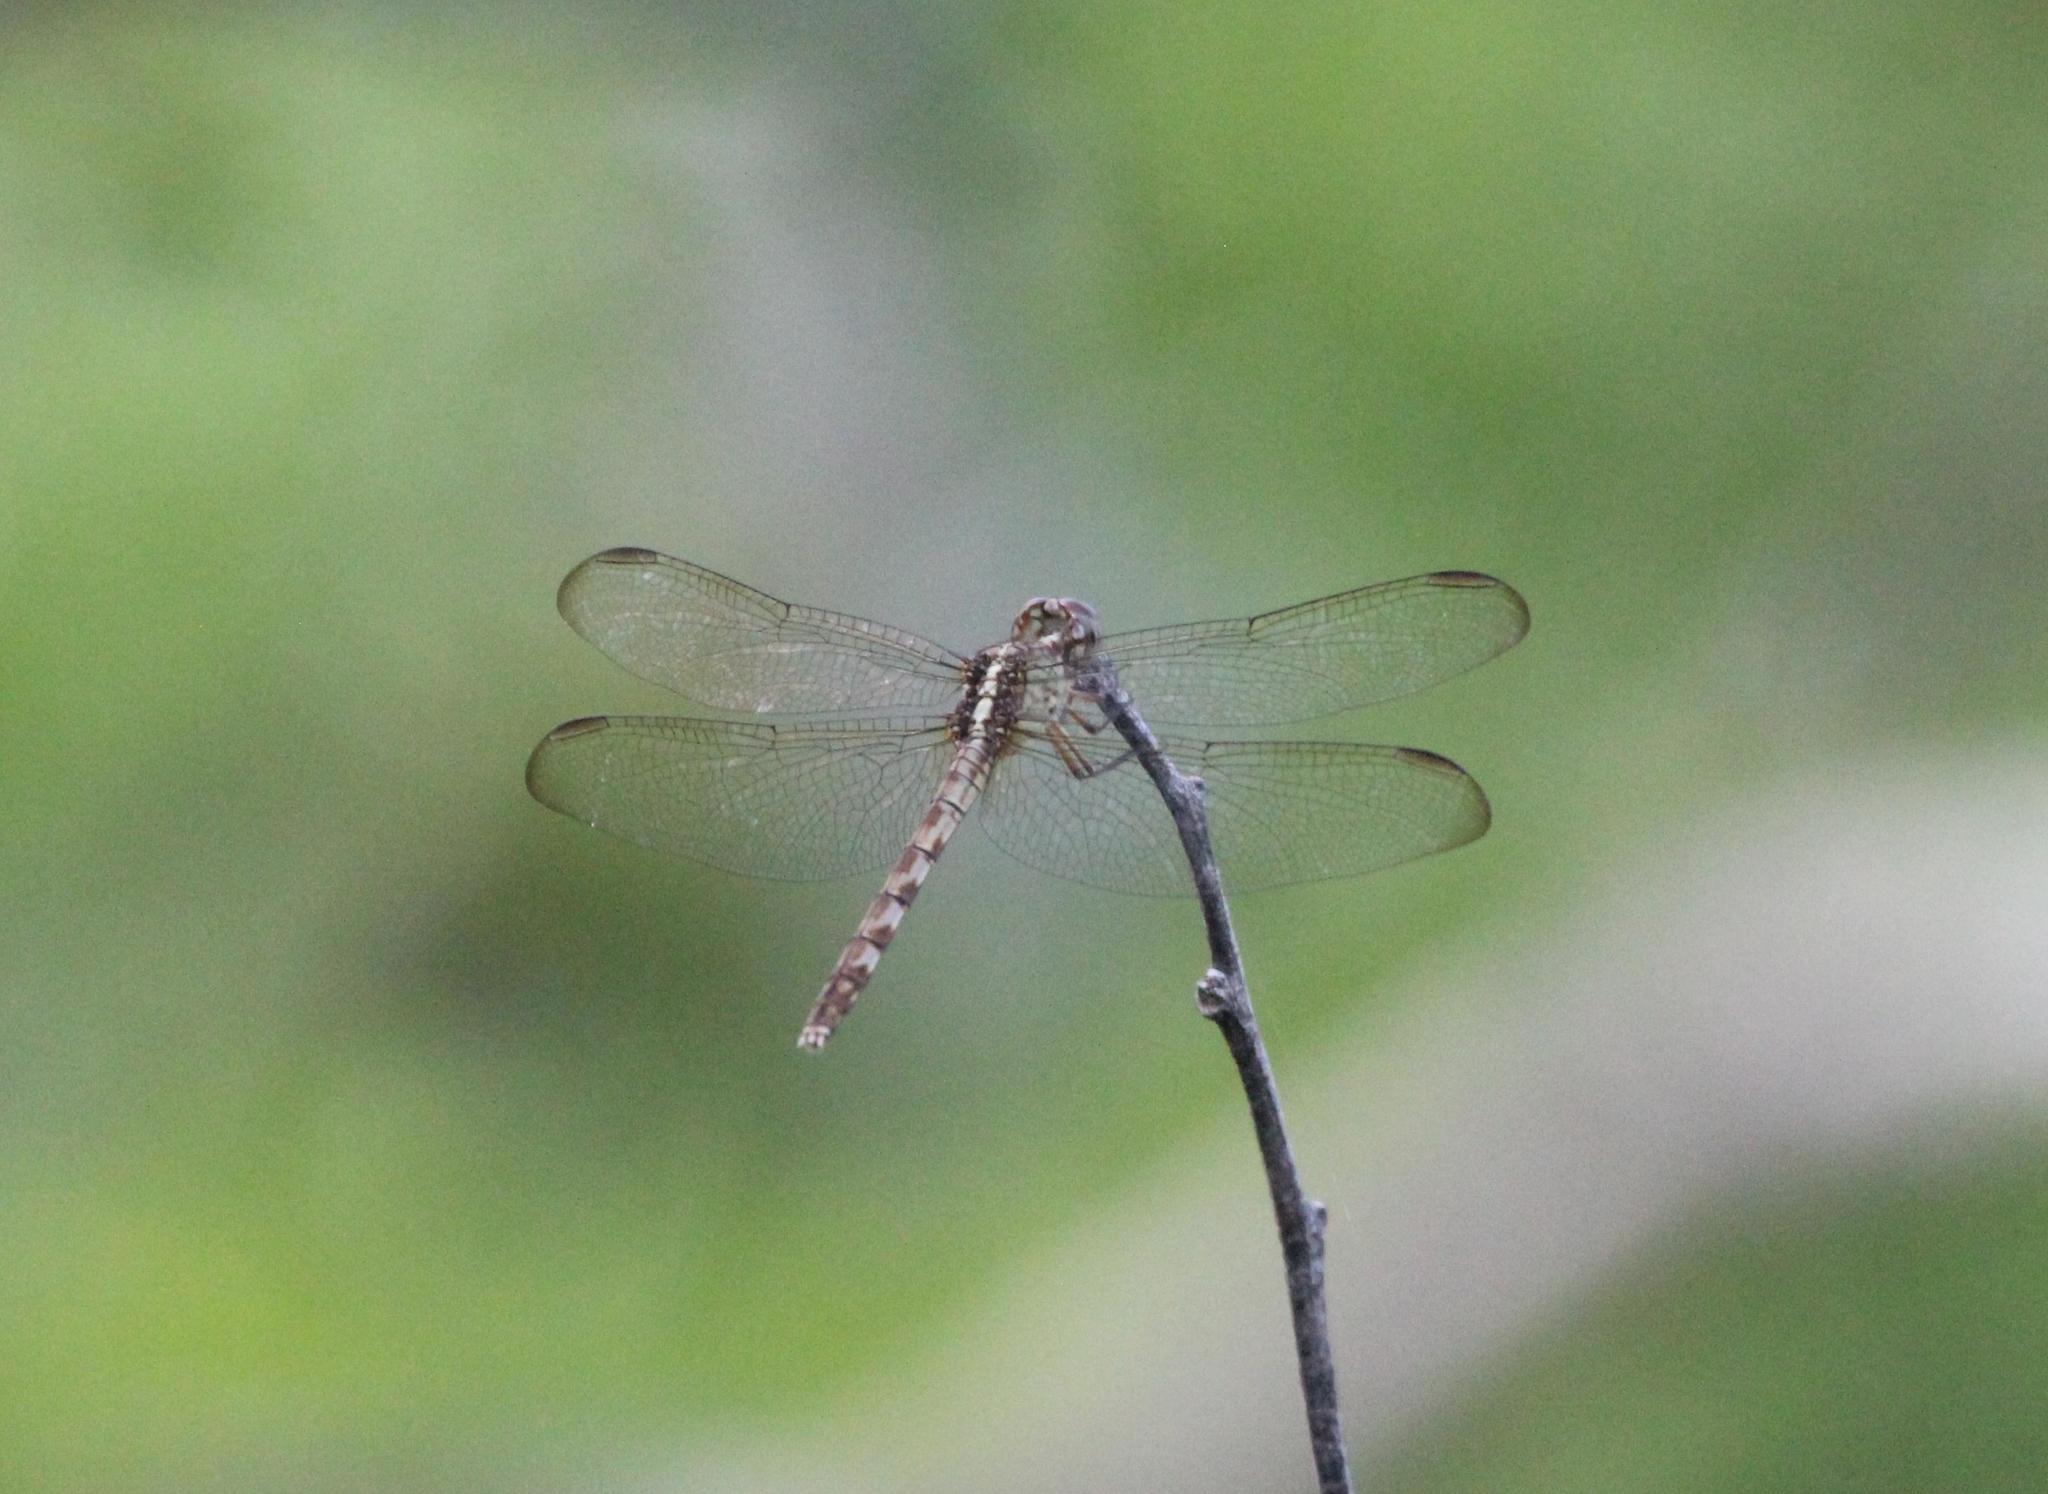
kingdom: Animalia
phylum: Arthropoda
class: Insecta
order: Odonata
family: Libellulidae
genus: Erythrodiplax
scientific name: Erythrodiplax umbrata
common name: Band-winged dragonlet
